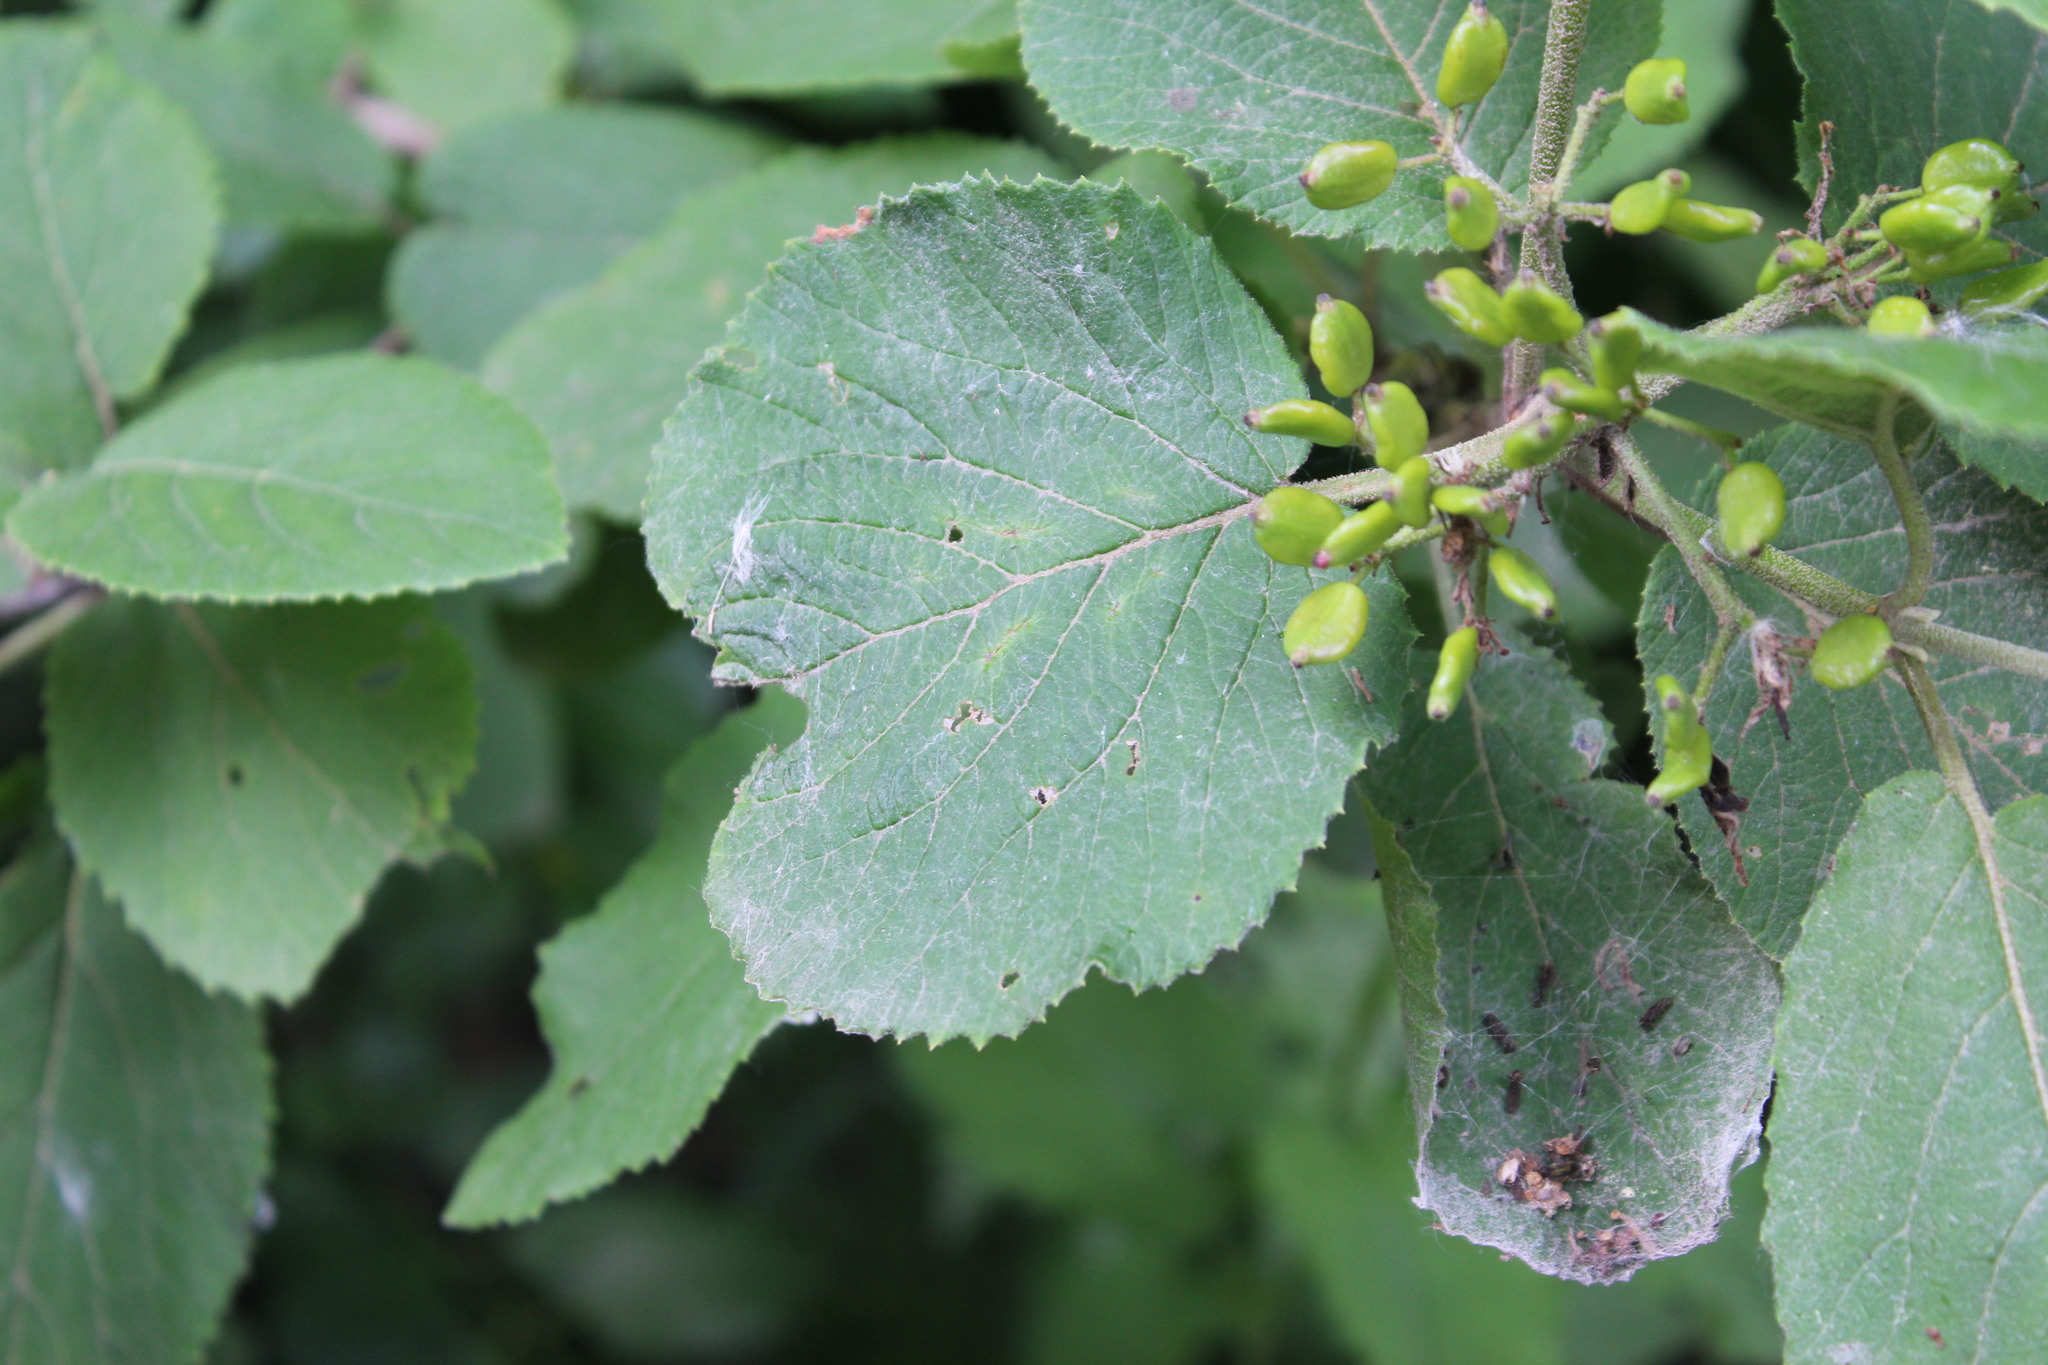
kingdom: Plantae
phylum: Tracheophyta
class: Magnoliopsida
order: Dipsacales
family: Viburnaceae
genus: Viburnum
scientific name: Viburnum lantana
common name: Wayfaring tree
